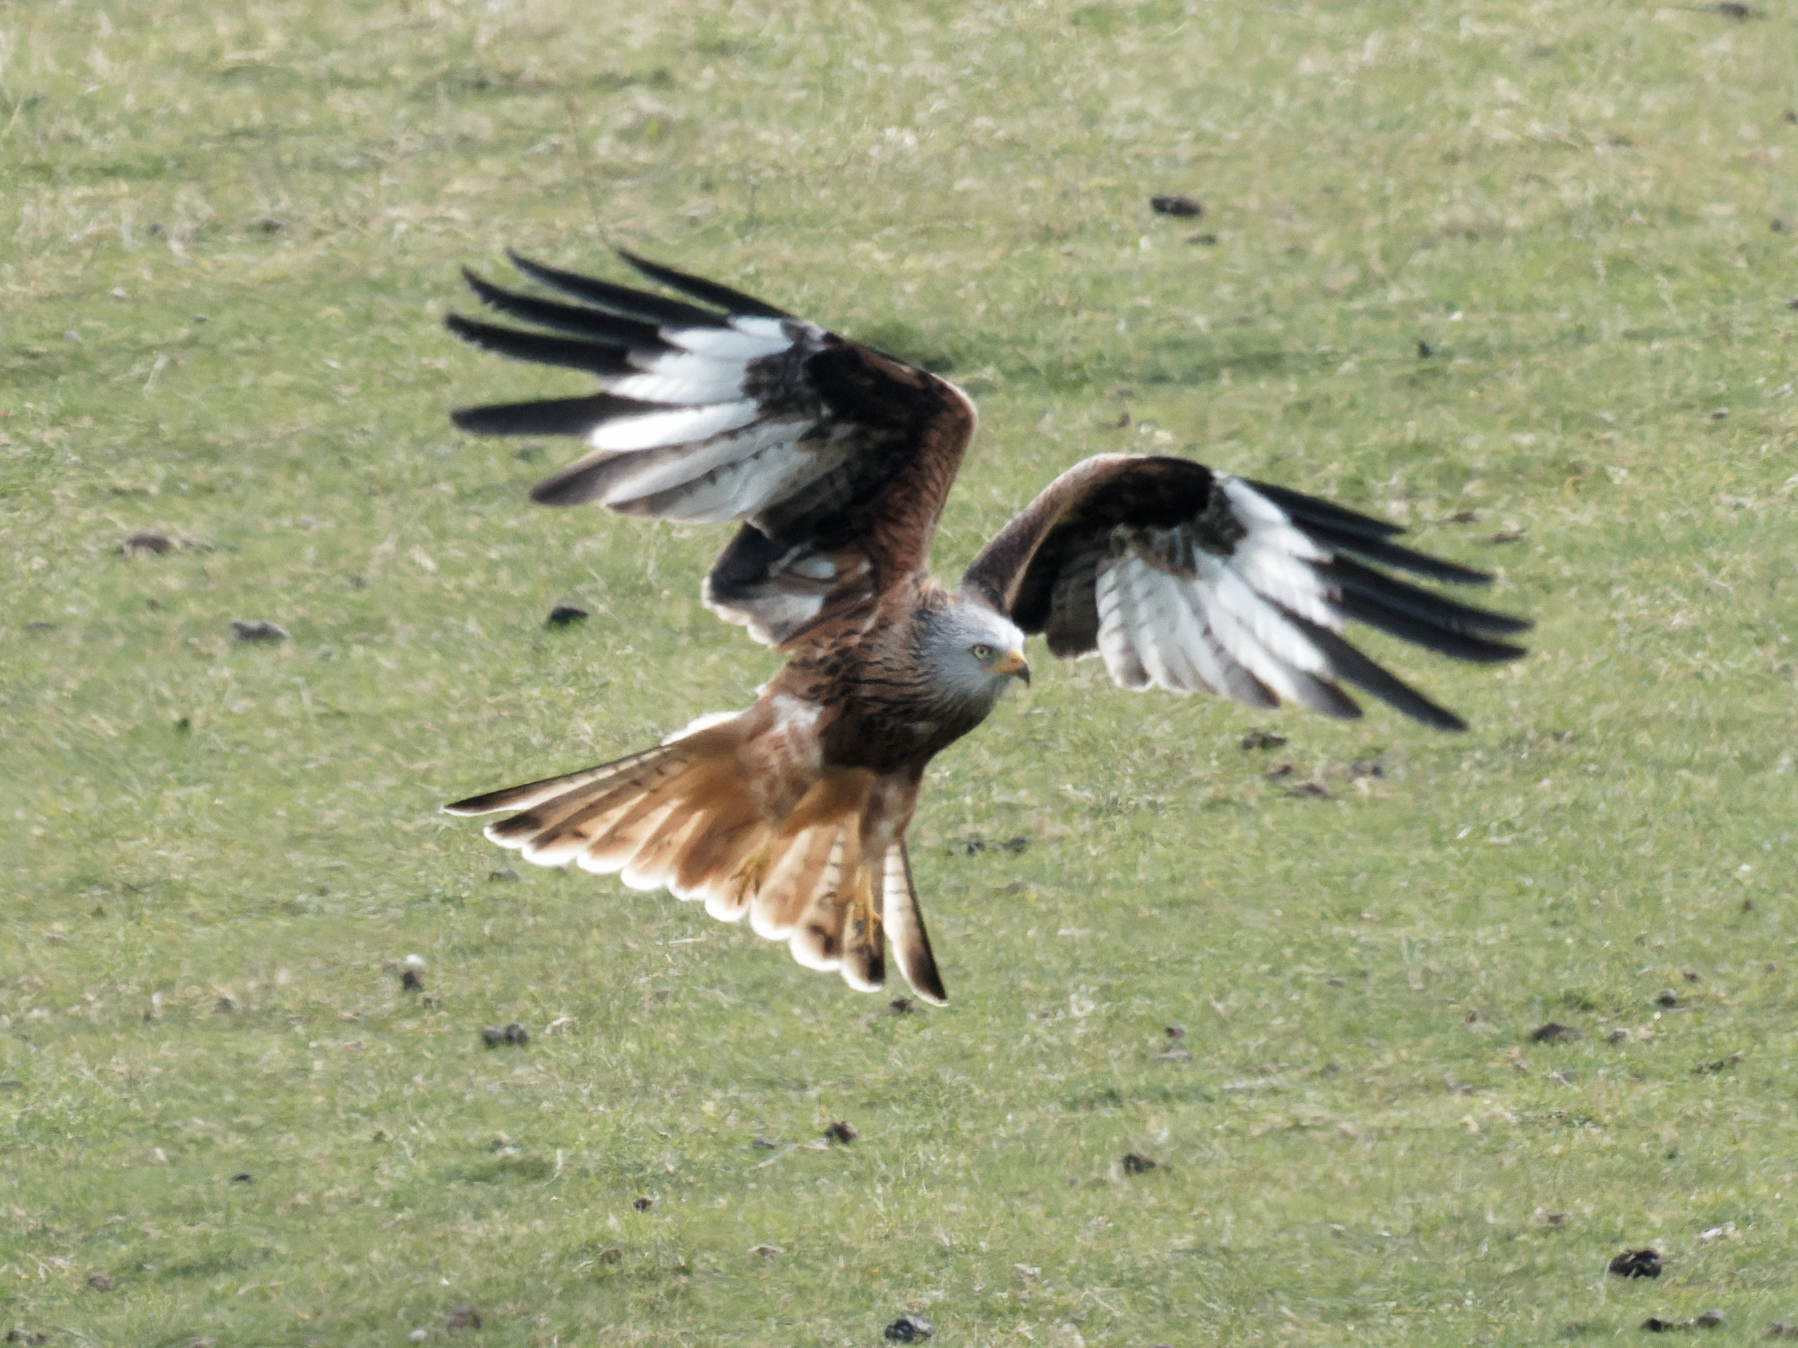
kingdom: Animalia
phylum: Chordata
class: Aves
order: Accipitriformes
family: Accipitridae
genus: Milvus
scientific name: Milvus milvus
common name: Red kite
